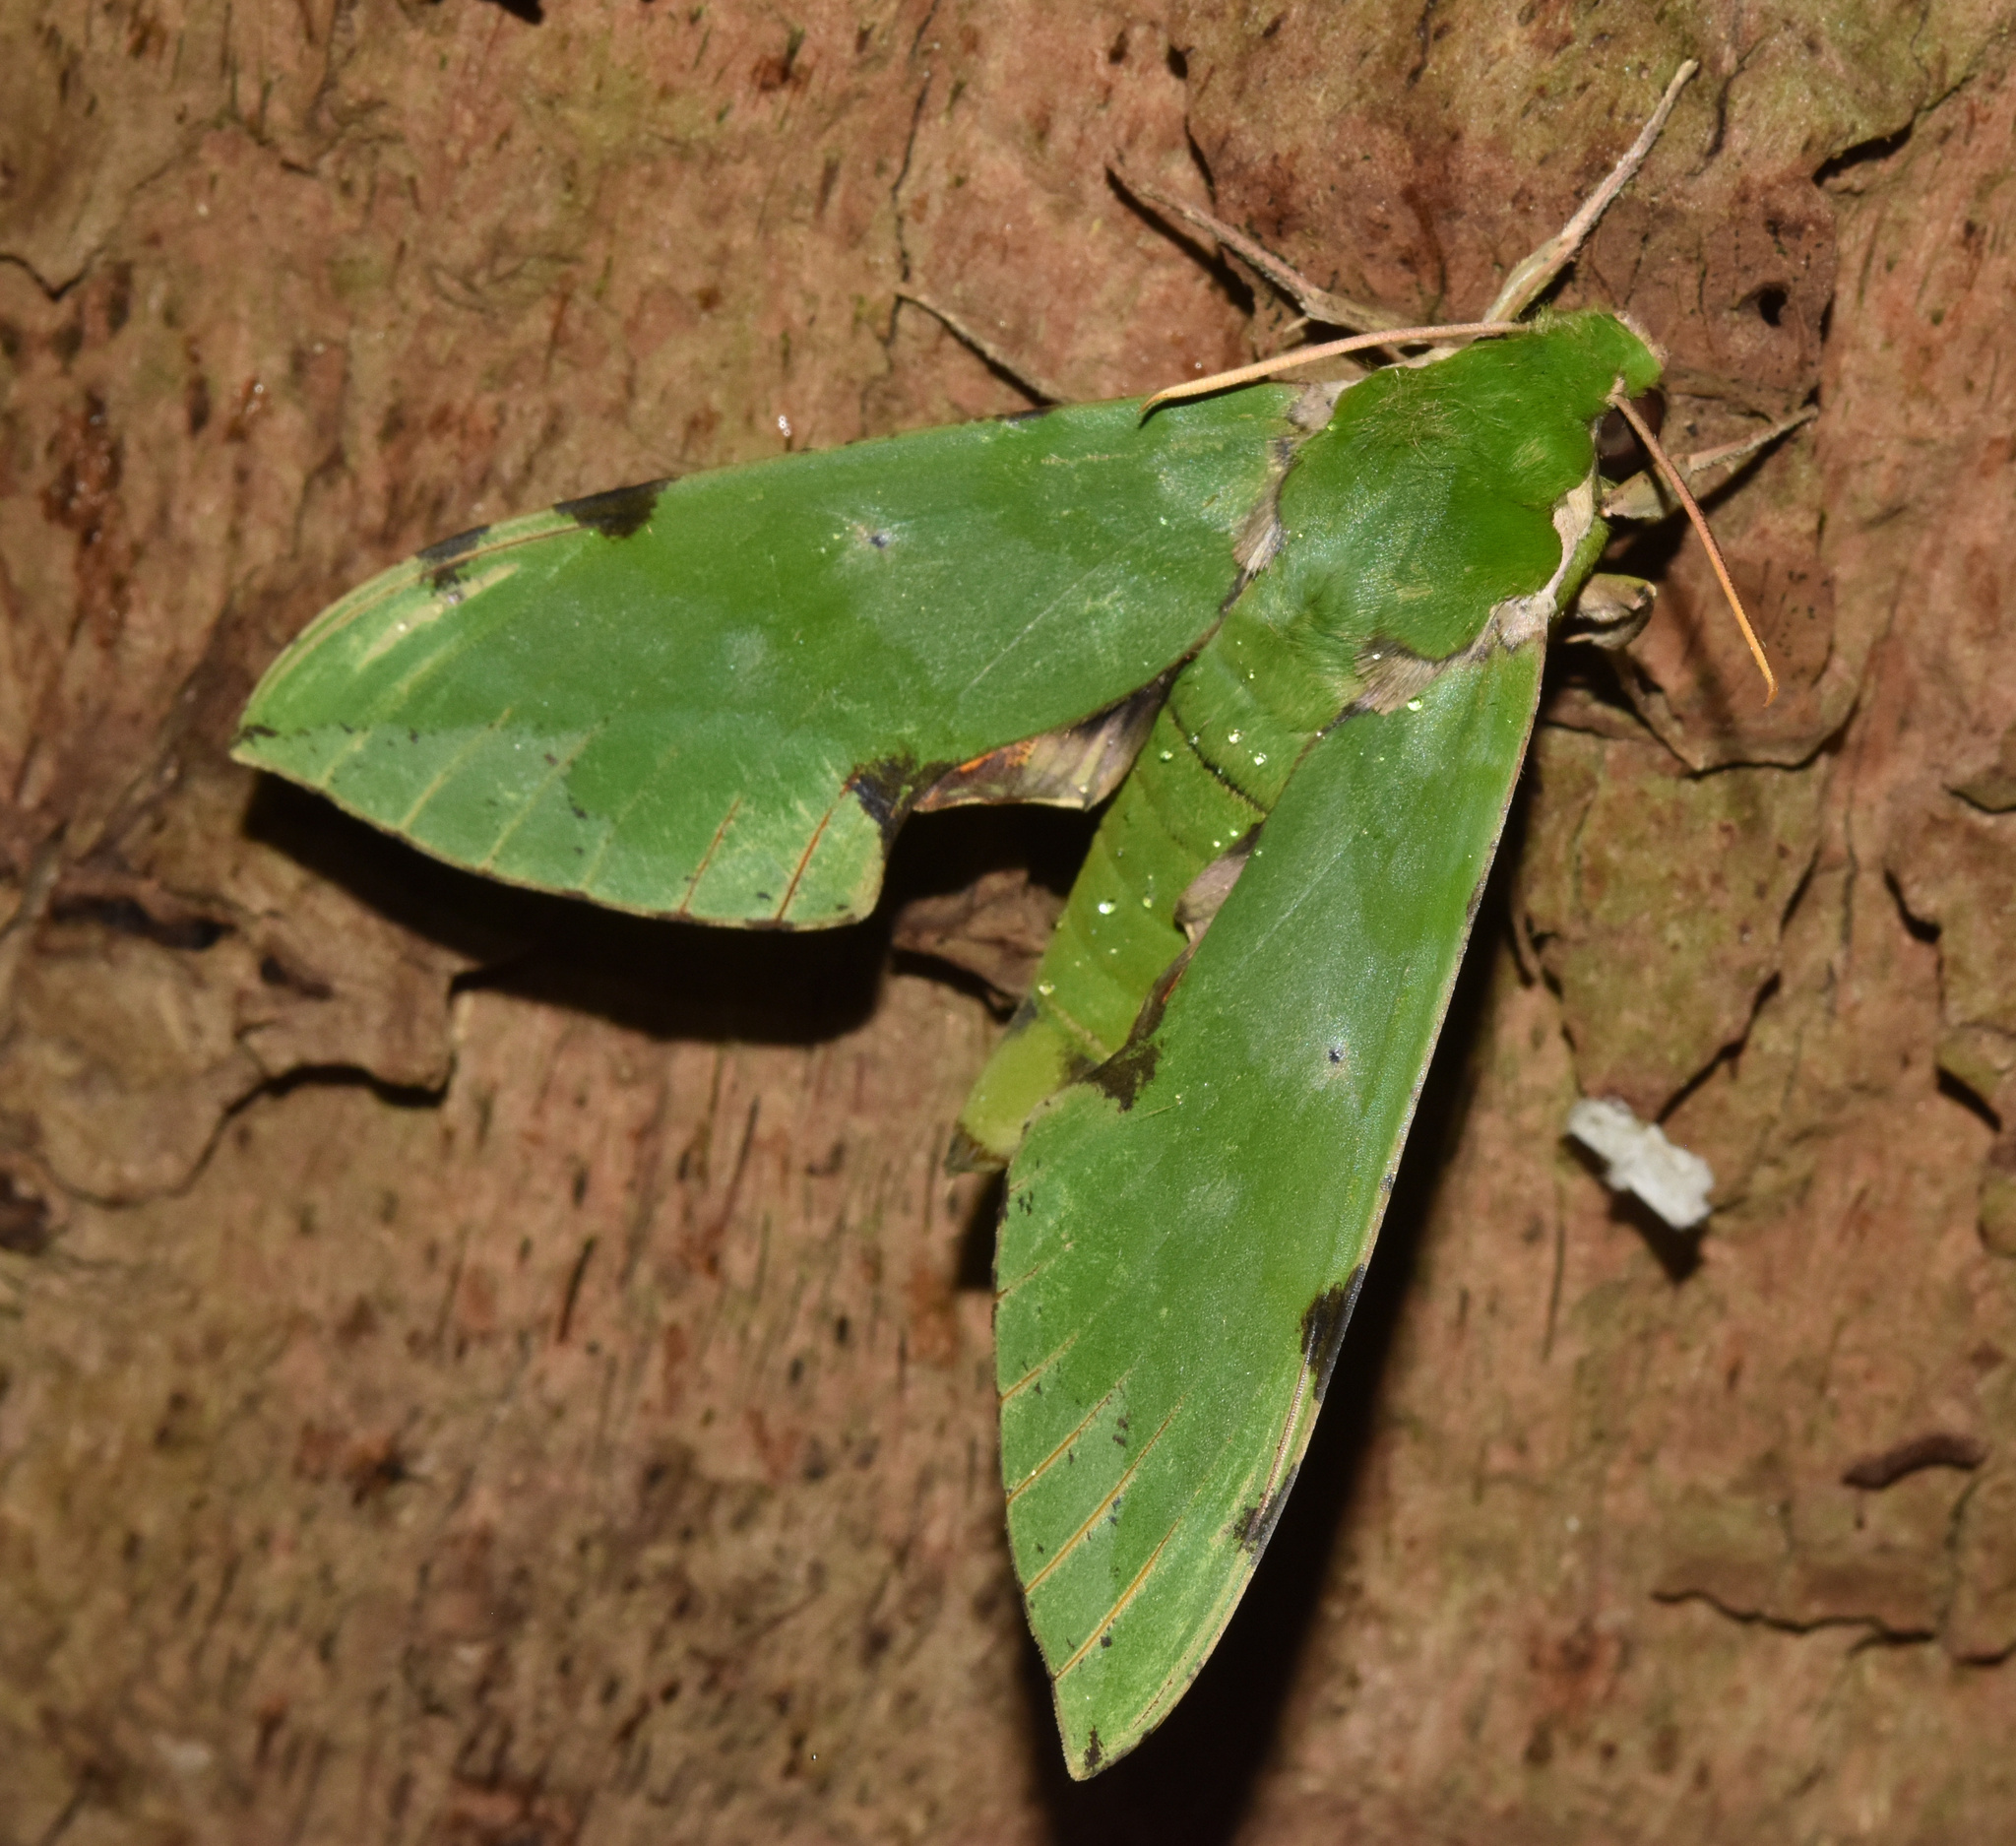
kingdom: Animalia
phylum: Arthropoda
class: Insecta
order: Lepidoptera
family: Sphingidae
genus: Euchloron
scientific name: Euchloron megaera
